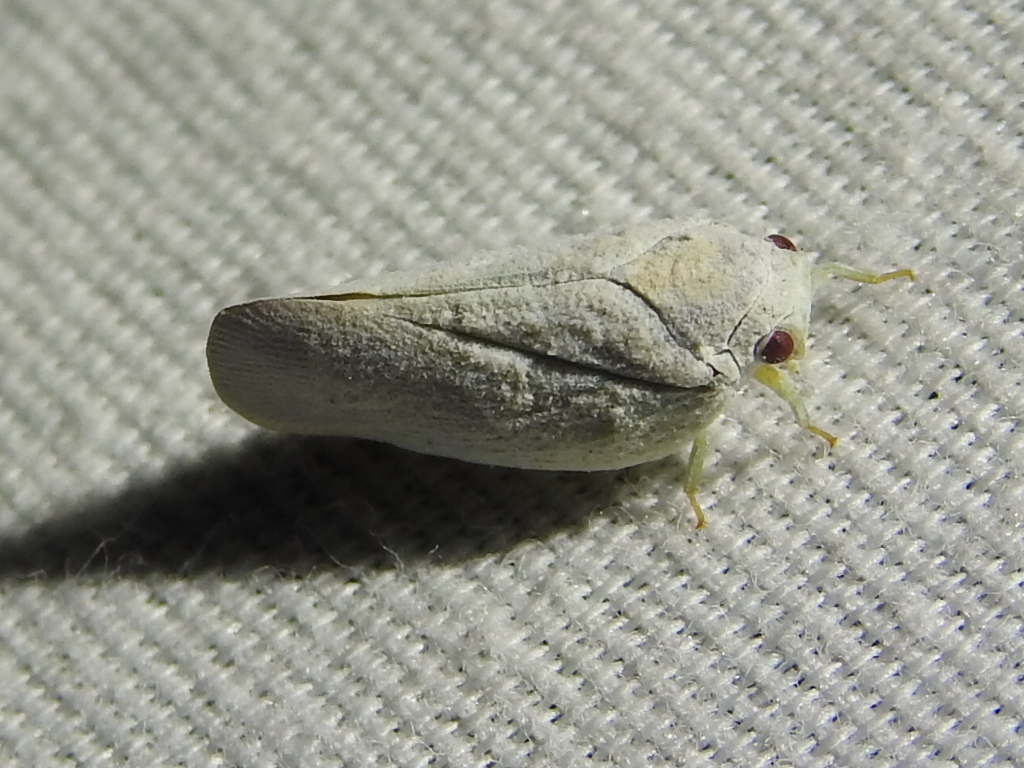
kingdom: Animalia
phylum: Arthropoda
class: Insecta
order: Hemiptera
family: Flatidae
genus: Flatormenis
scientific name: Flatormenis saucia
